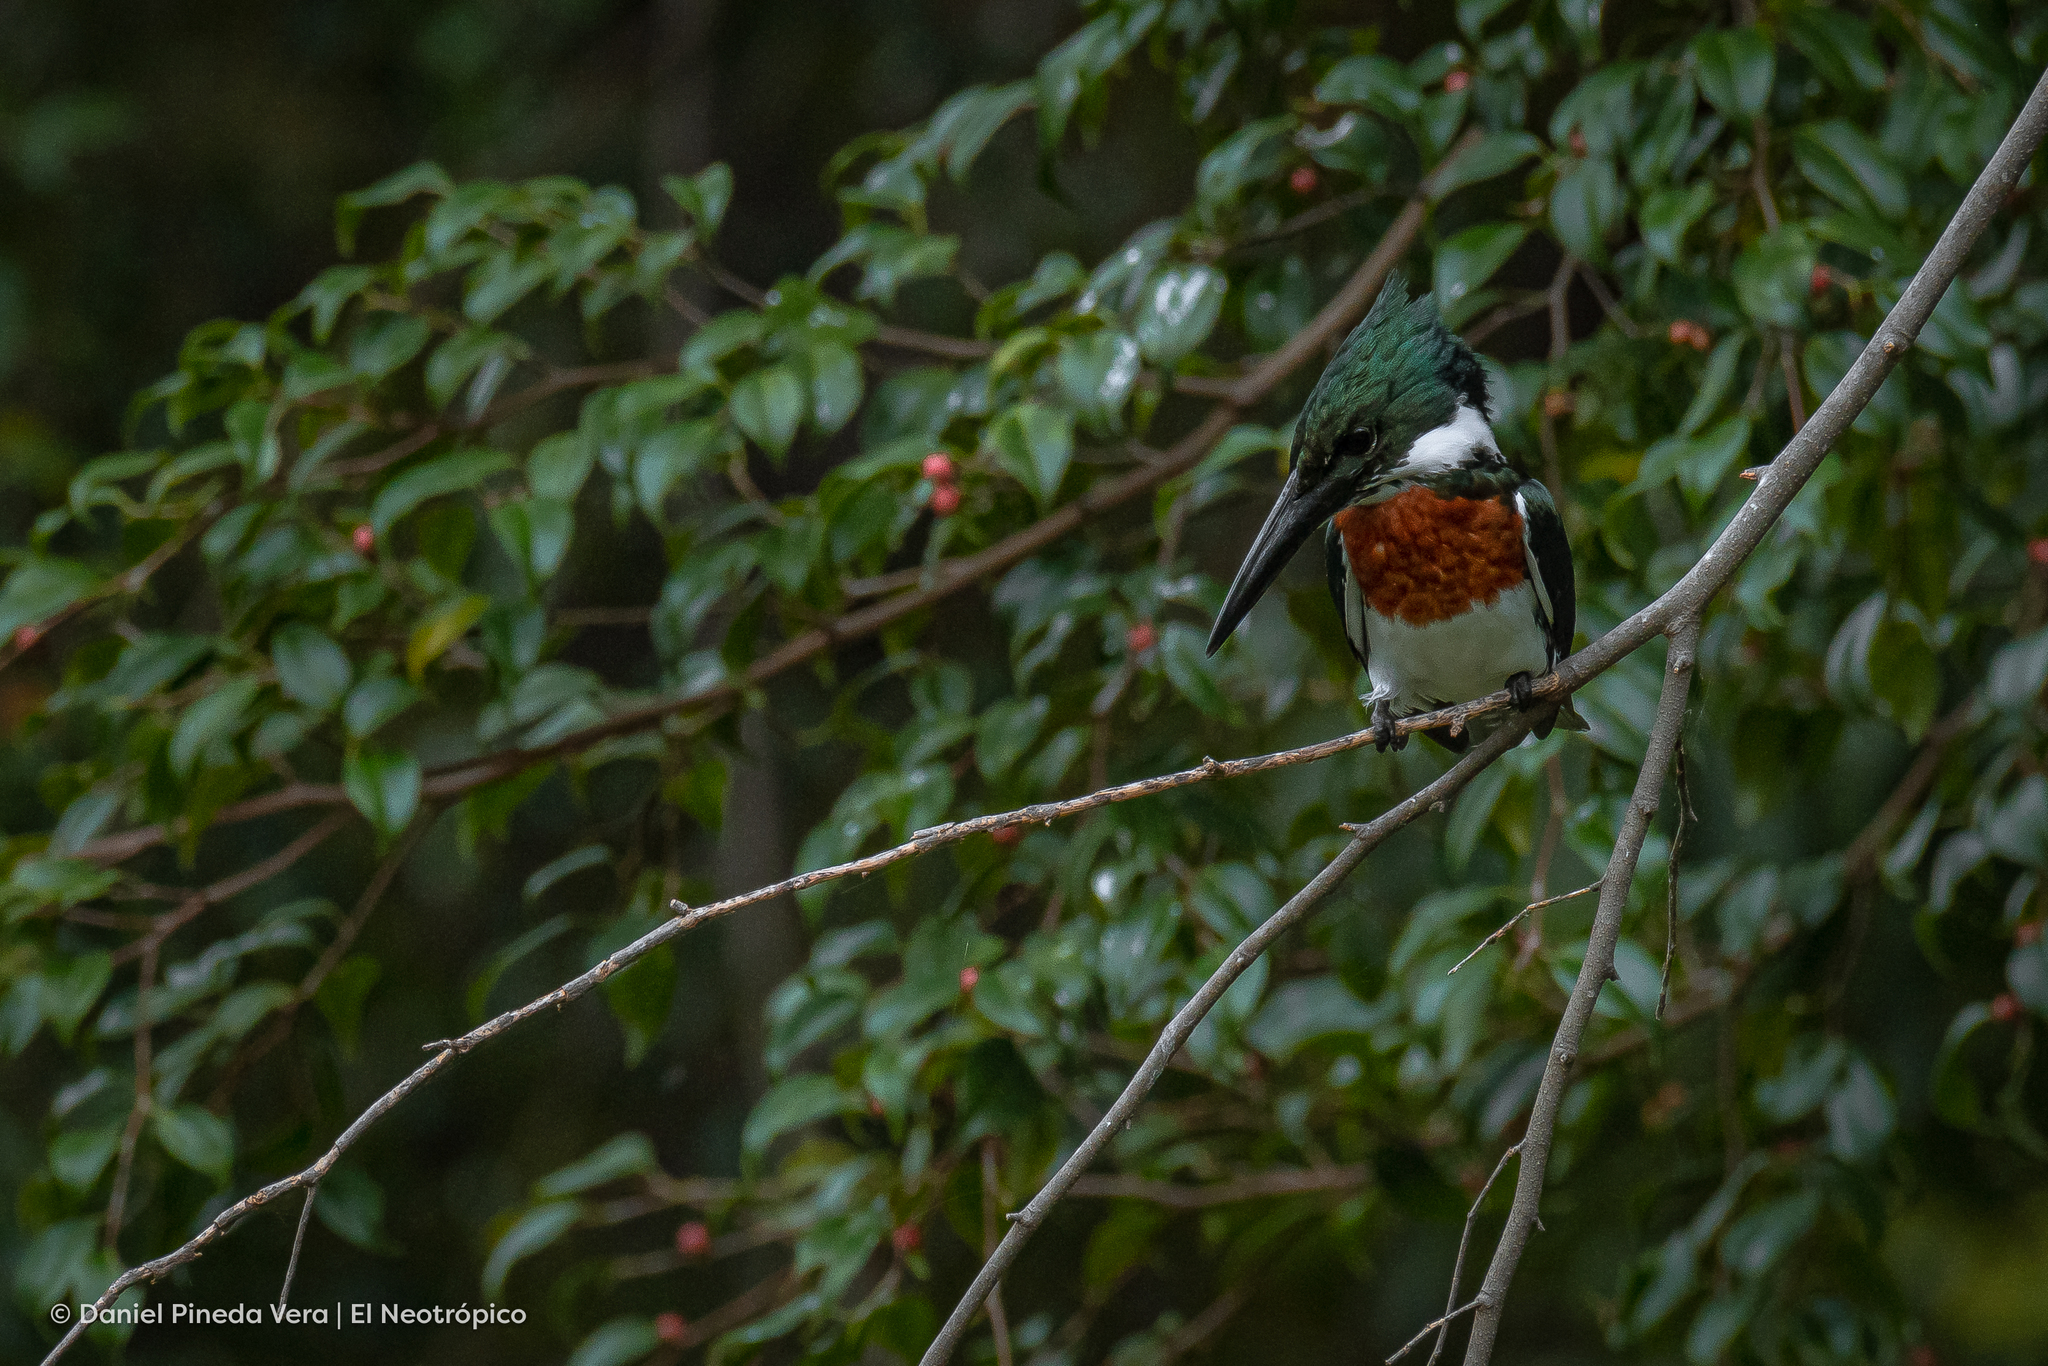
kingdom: Animalia
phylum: Chordata
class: Aves
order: Coraciiformes
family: Alcedinidae
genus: Chloroceryle
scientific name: Chloroceryle amazona
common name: Amazon kingfisher
